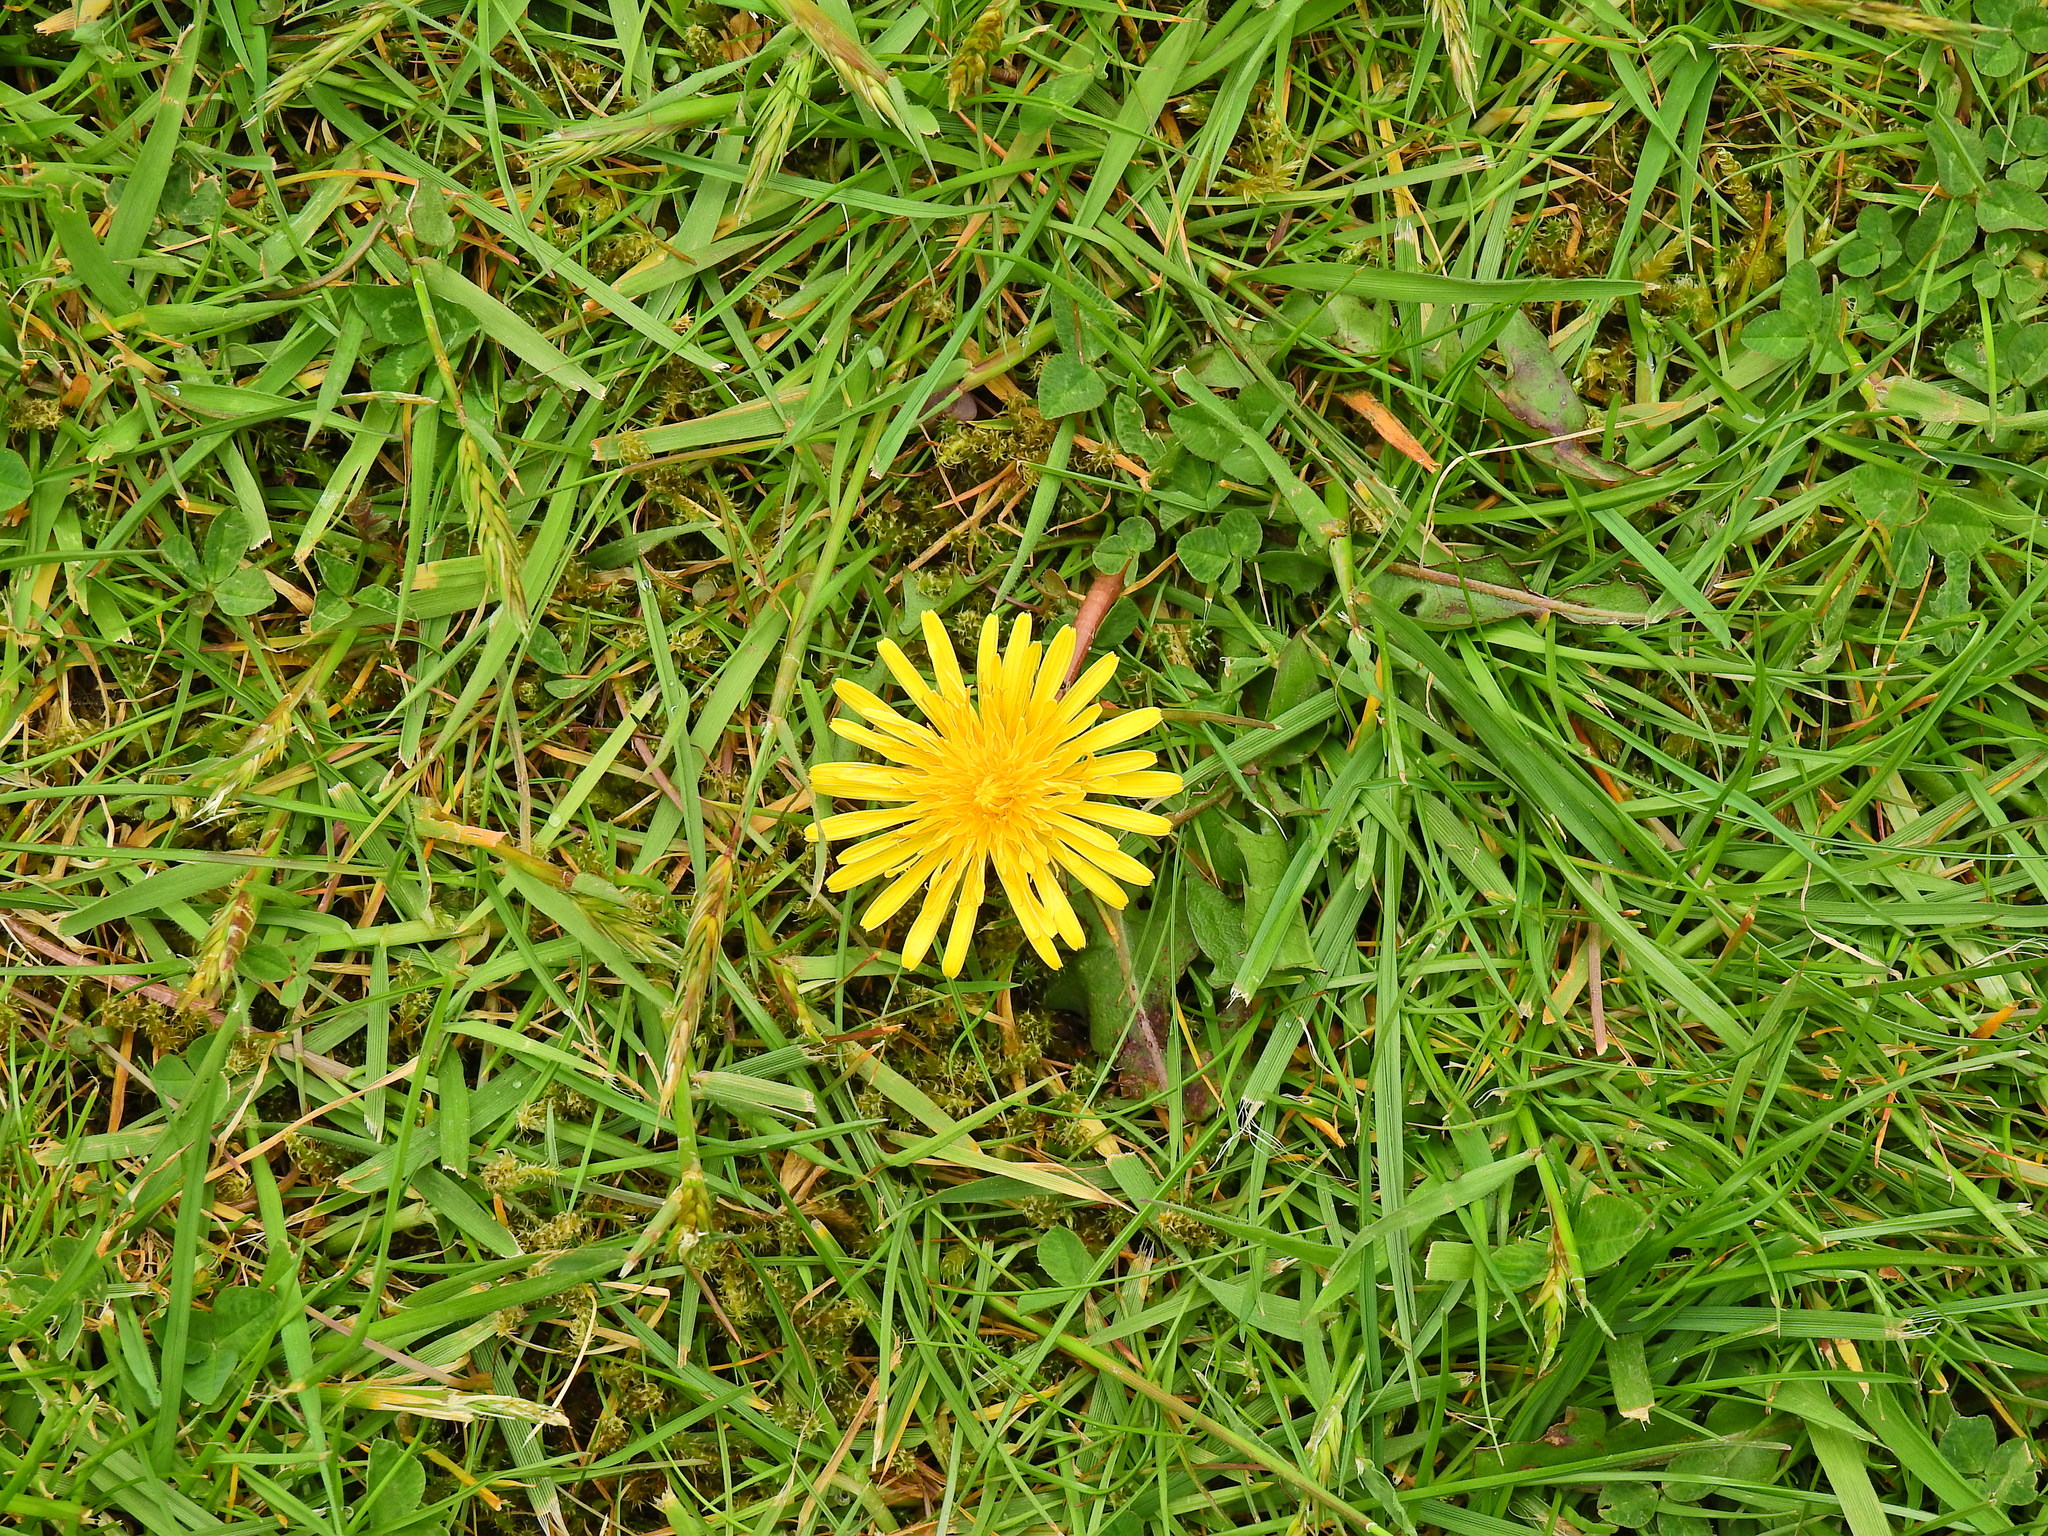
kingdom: Plantae
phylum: Tracheophyta
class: Magnoliopsida
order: Asterales
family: Asteraceae
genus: Taraxacum
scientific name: Taraxacum officinale
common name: Common dandelion
